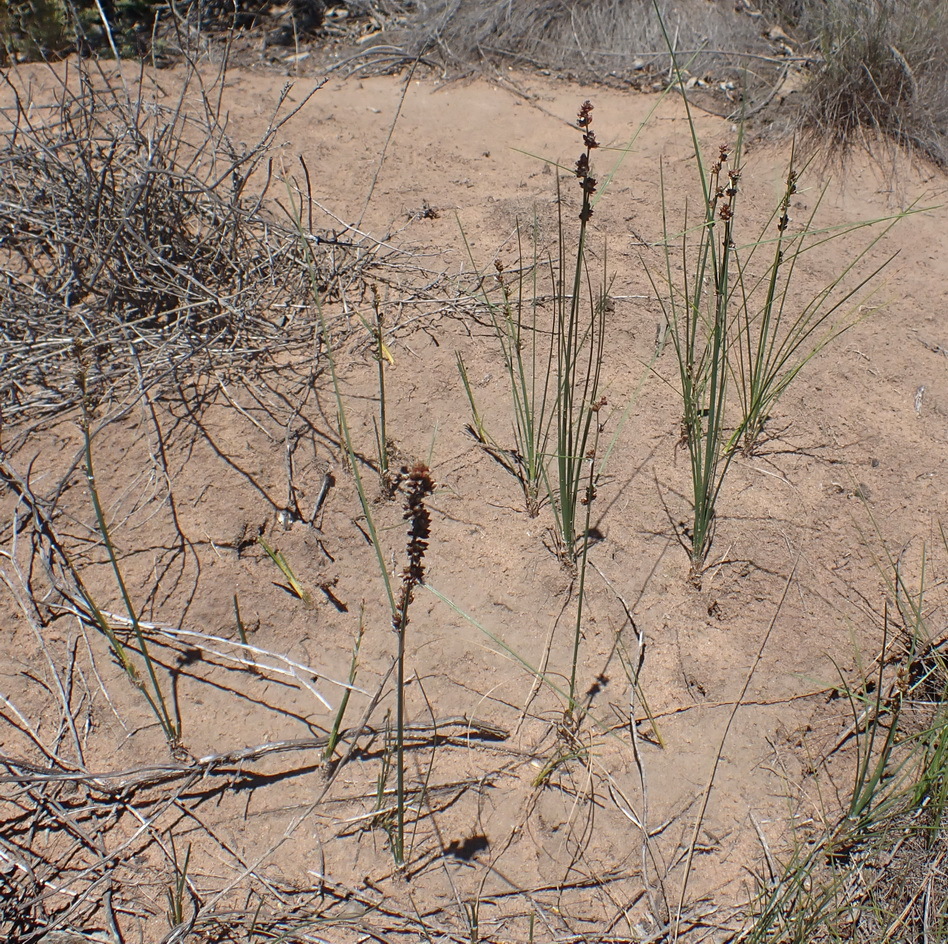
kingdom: Plantae
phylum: Tracheophyta
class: Liliopsida
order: Poales
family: Cyperaceae
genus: Ficinia
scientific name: Ficinia bulbosa
